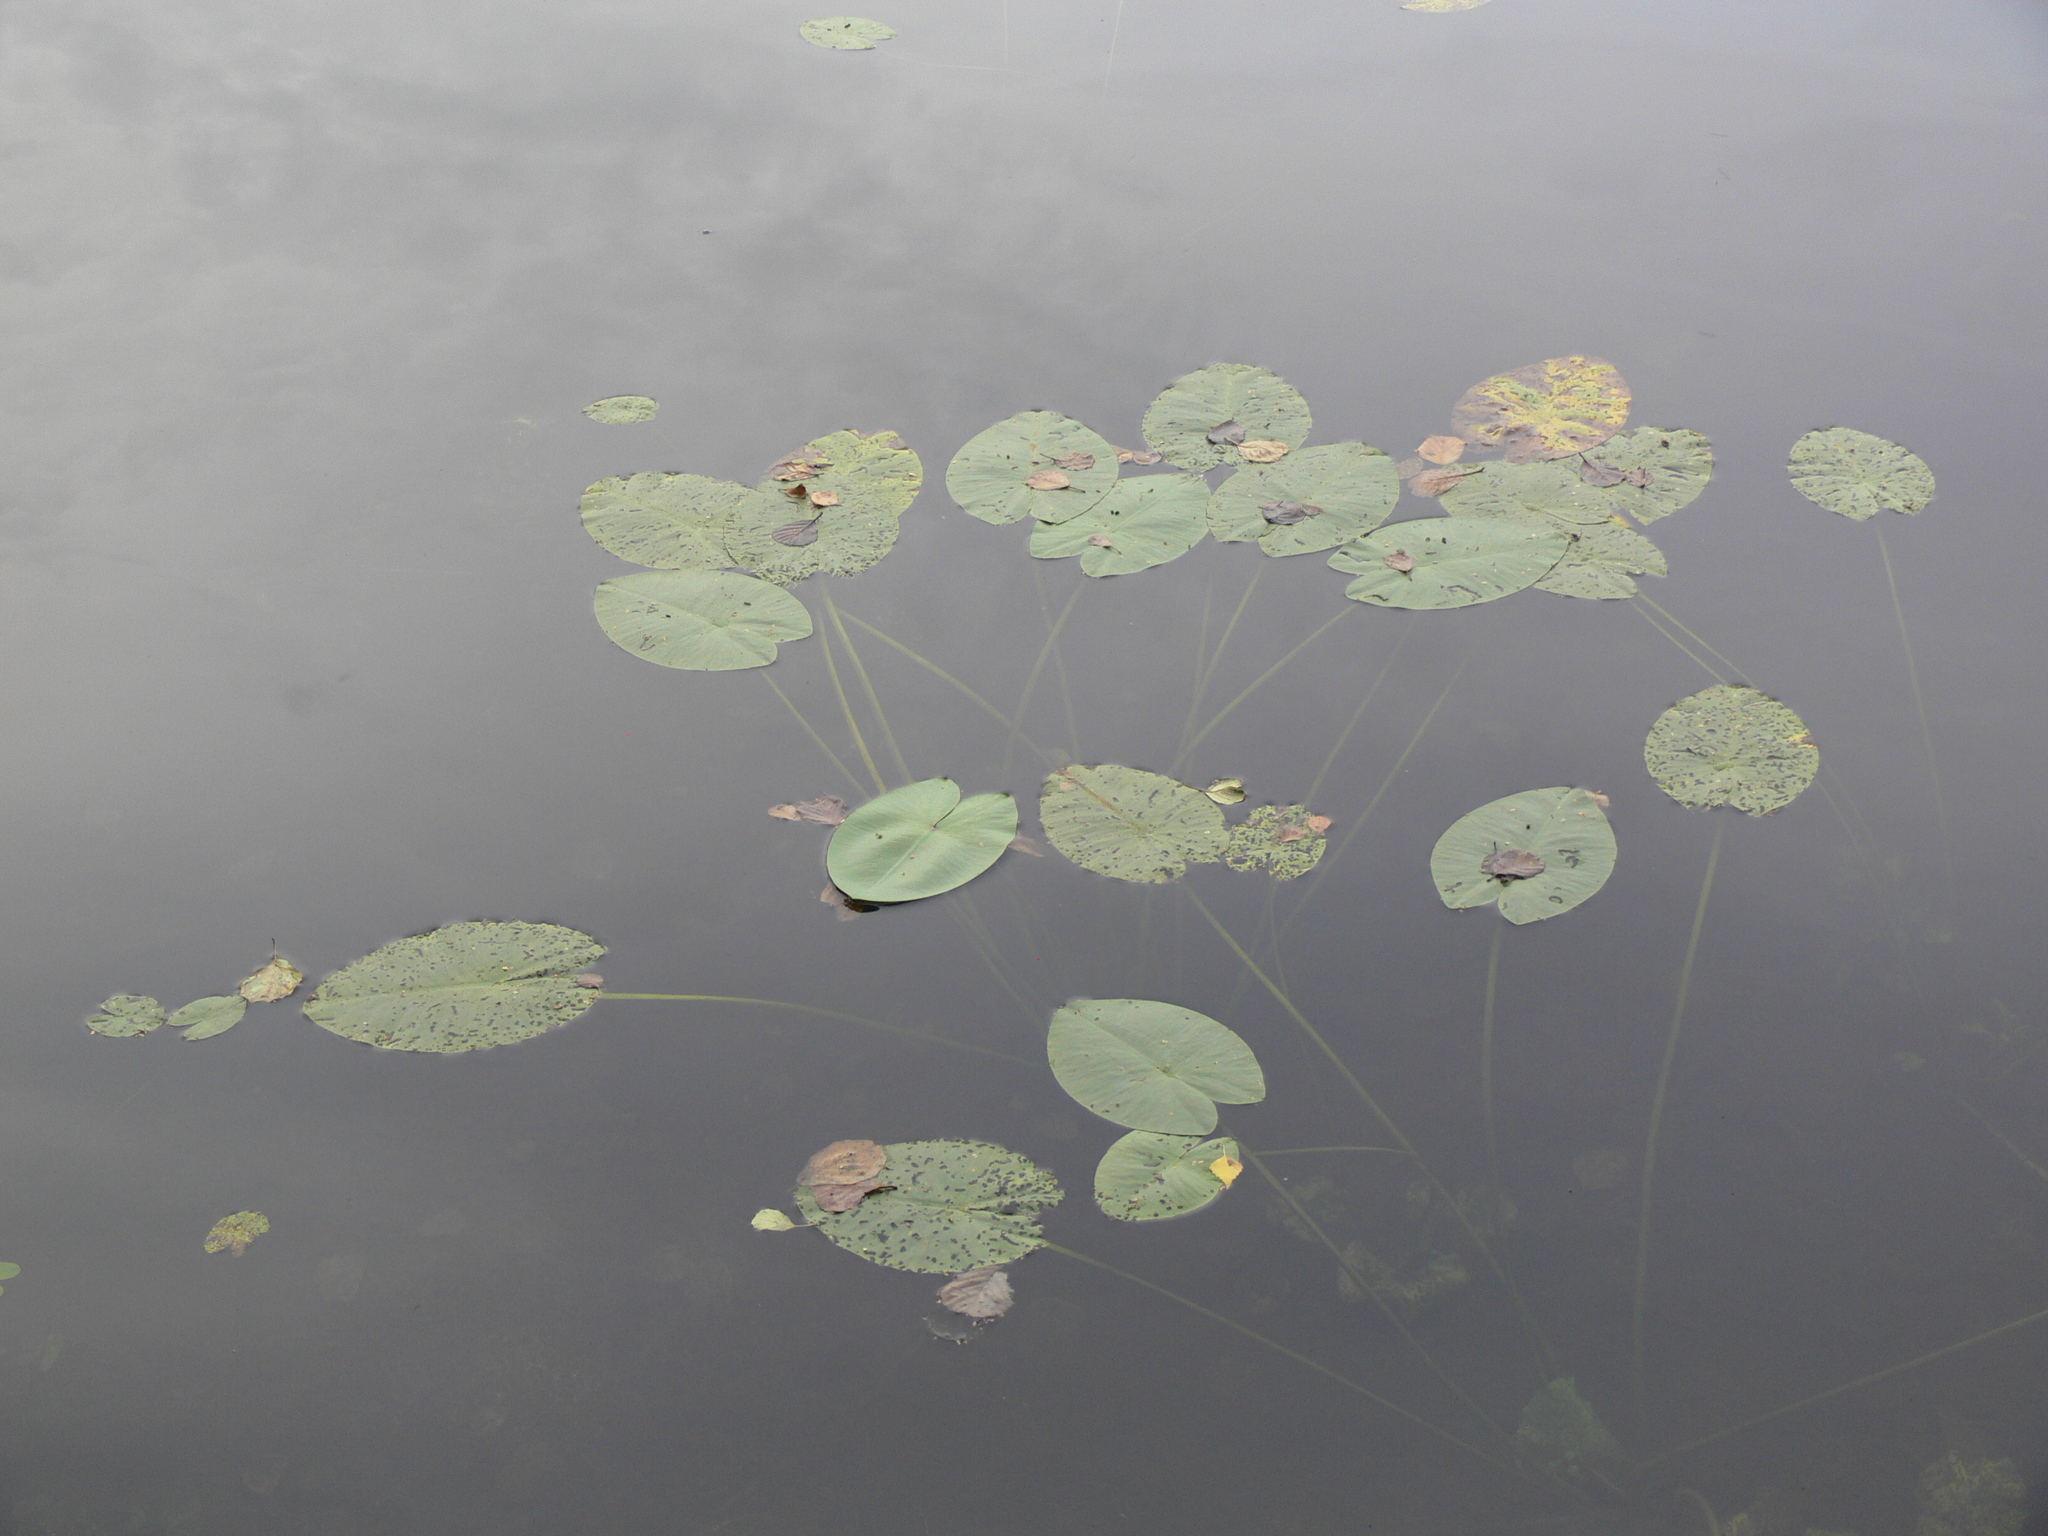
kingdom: Plantae
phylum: Tracheophyta
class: Magnoliopsida
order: Nymphaeales
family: Nymphaeaceae
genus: Nuphar
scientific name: Nuphar lutea
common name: Yellow water-lily
